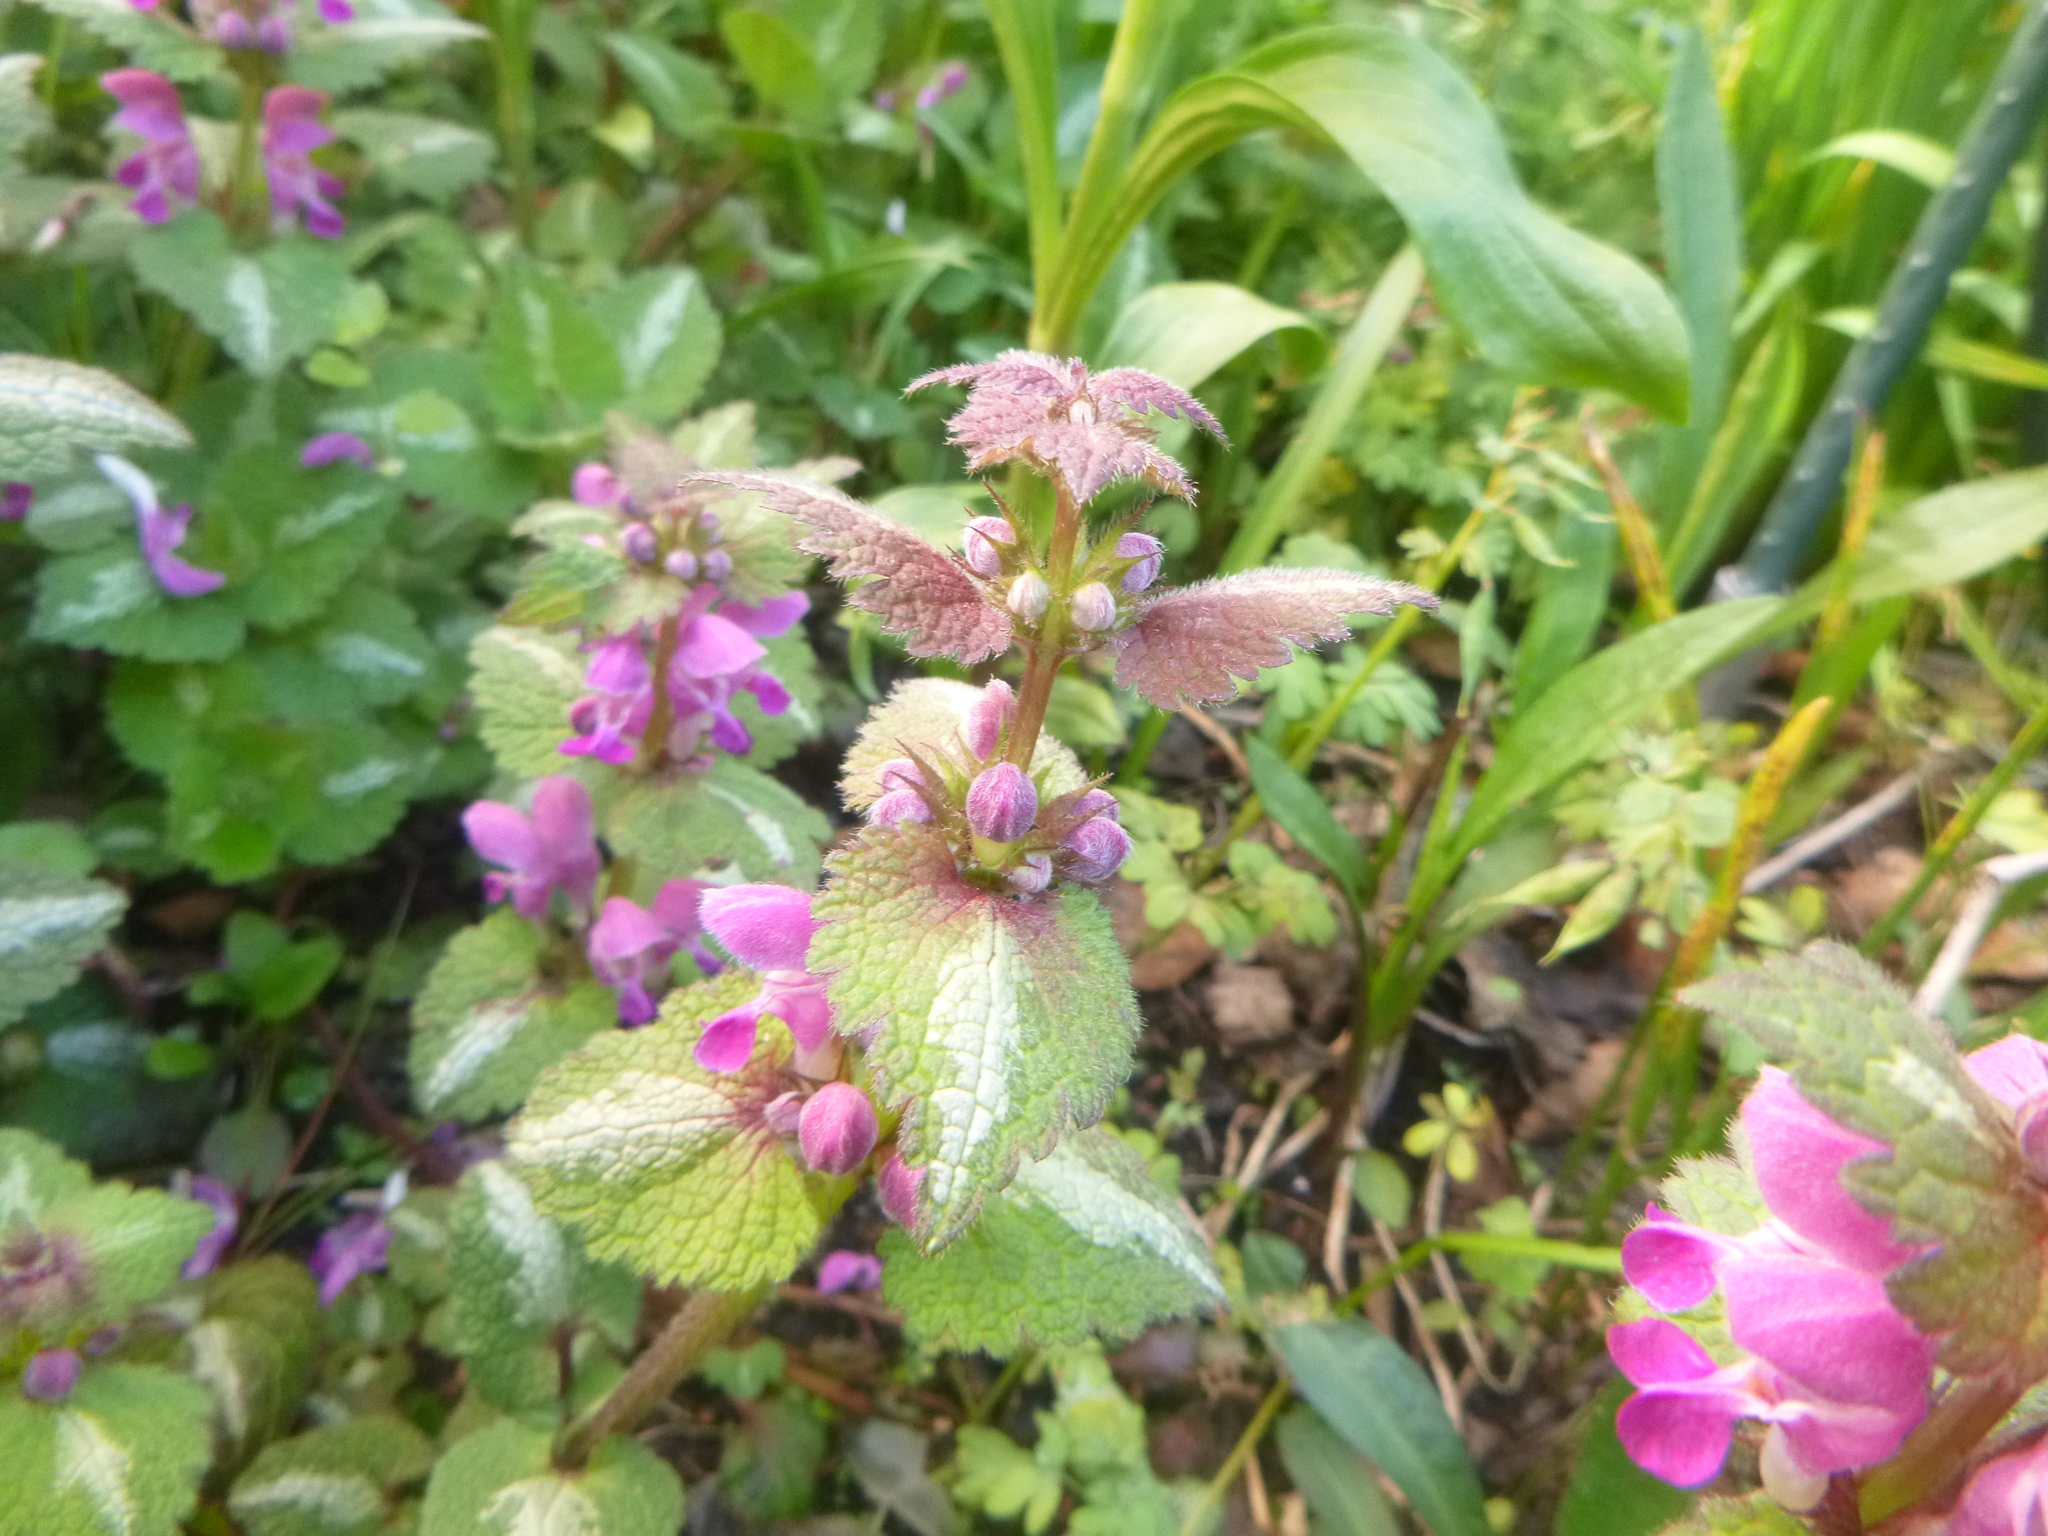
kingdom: Plantae
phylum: Tracheophyta
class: Magnoliopsida
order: Lamiales
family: Lamiaceae
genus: Lamium
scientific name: Lamium maculatum
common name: Spotted dead-nettle
